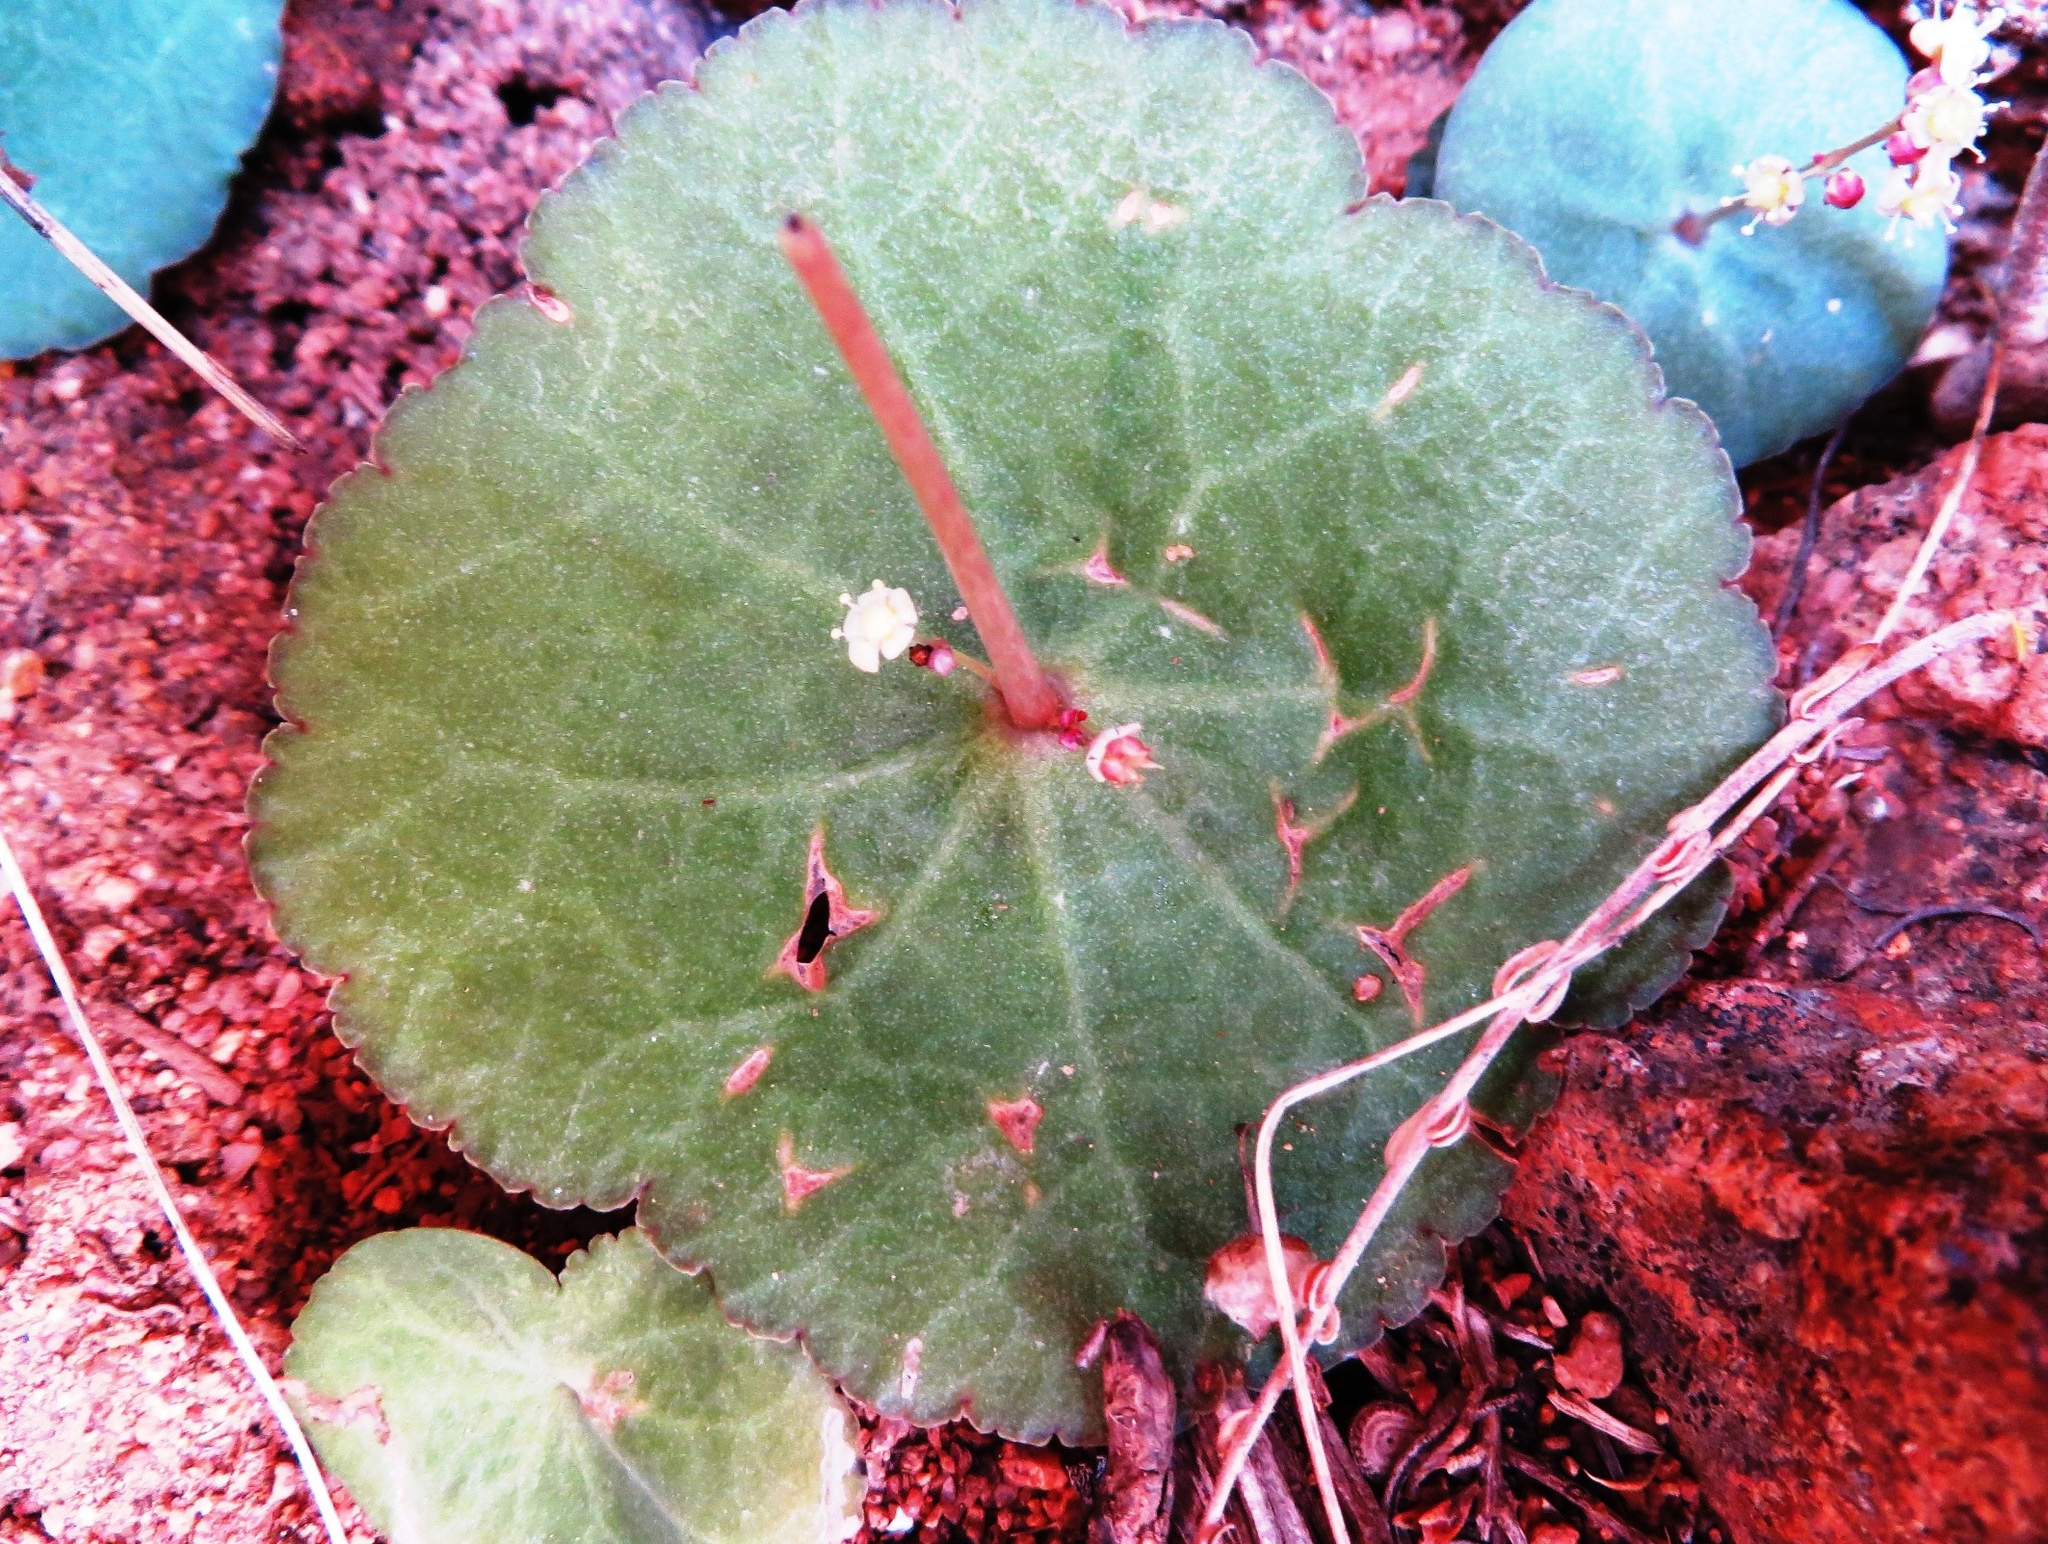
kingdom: Plantae
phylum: Tracheophyta
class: Magnoliopsida
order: Saxifragales
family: Crassulaceae
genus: Crassula
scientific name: Crassula umbella
